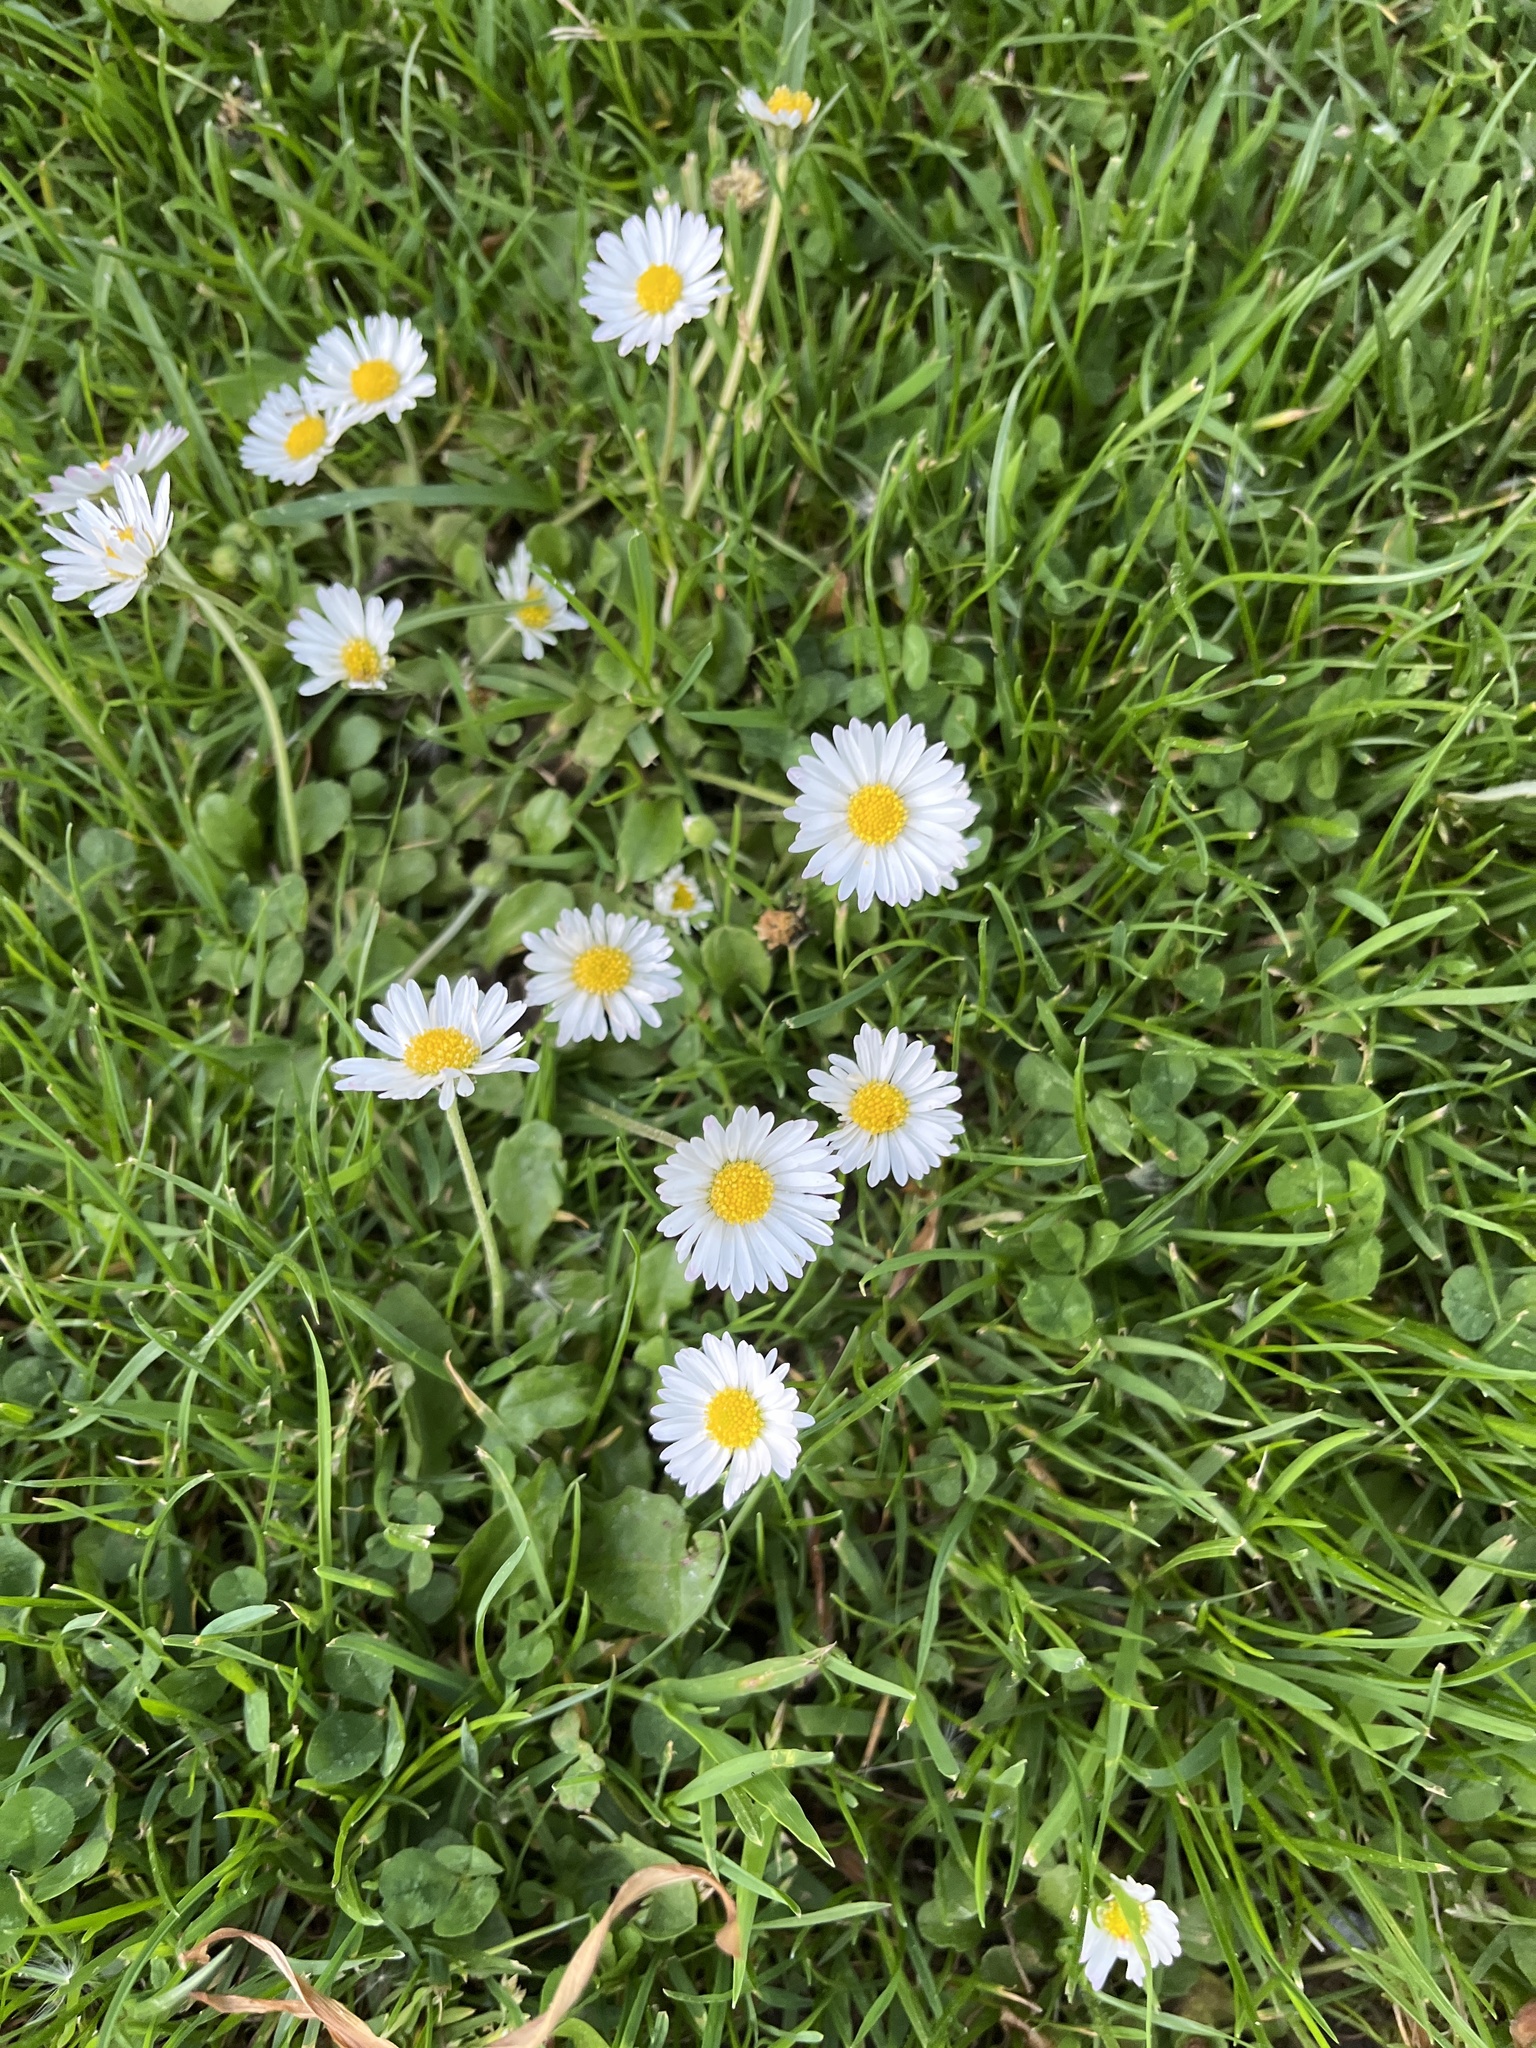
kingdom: Plantae
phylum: Tracheophyta
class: Magnoliopsida
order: Asterales
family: Asteraceae
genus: Bellis
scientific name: Bellis perennis
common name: Lawndaisy
